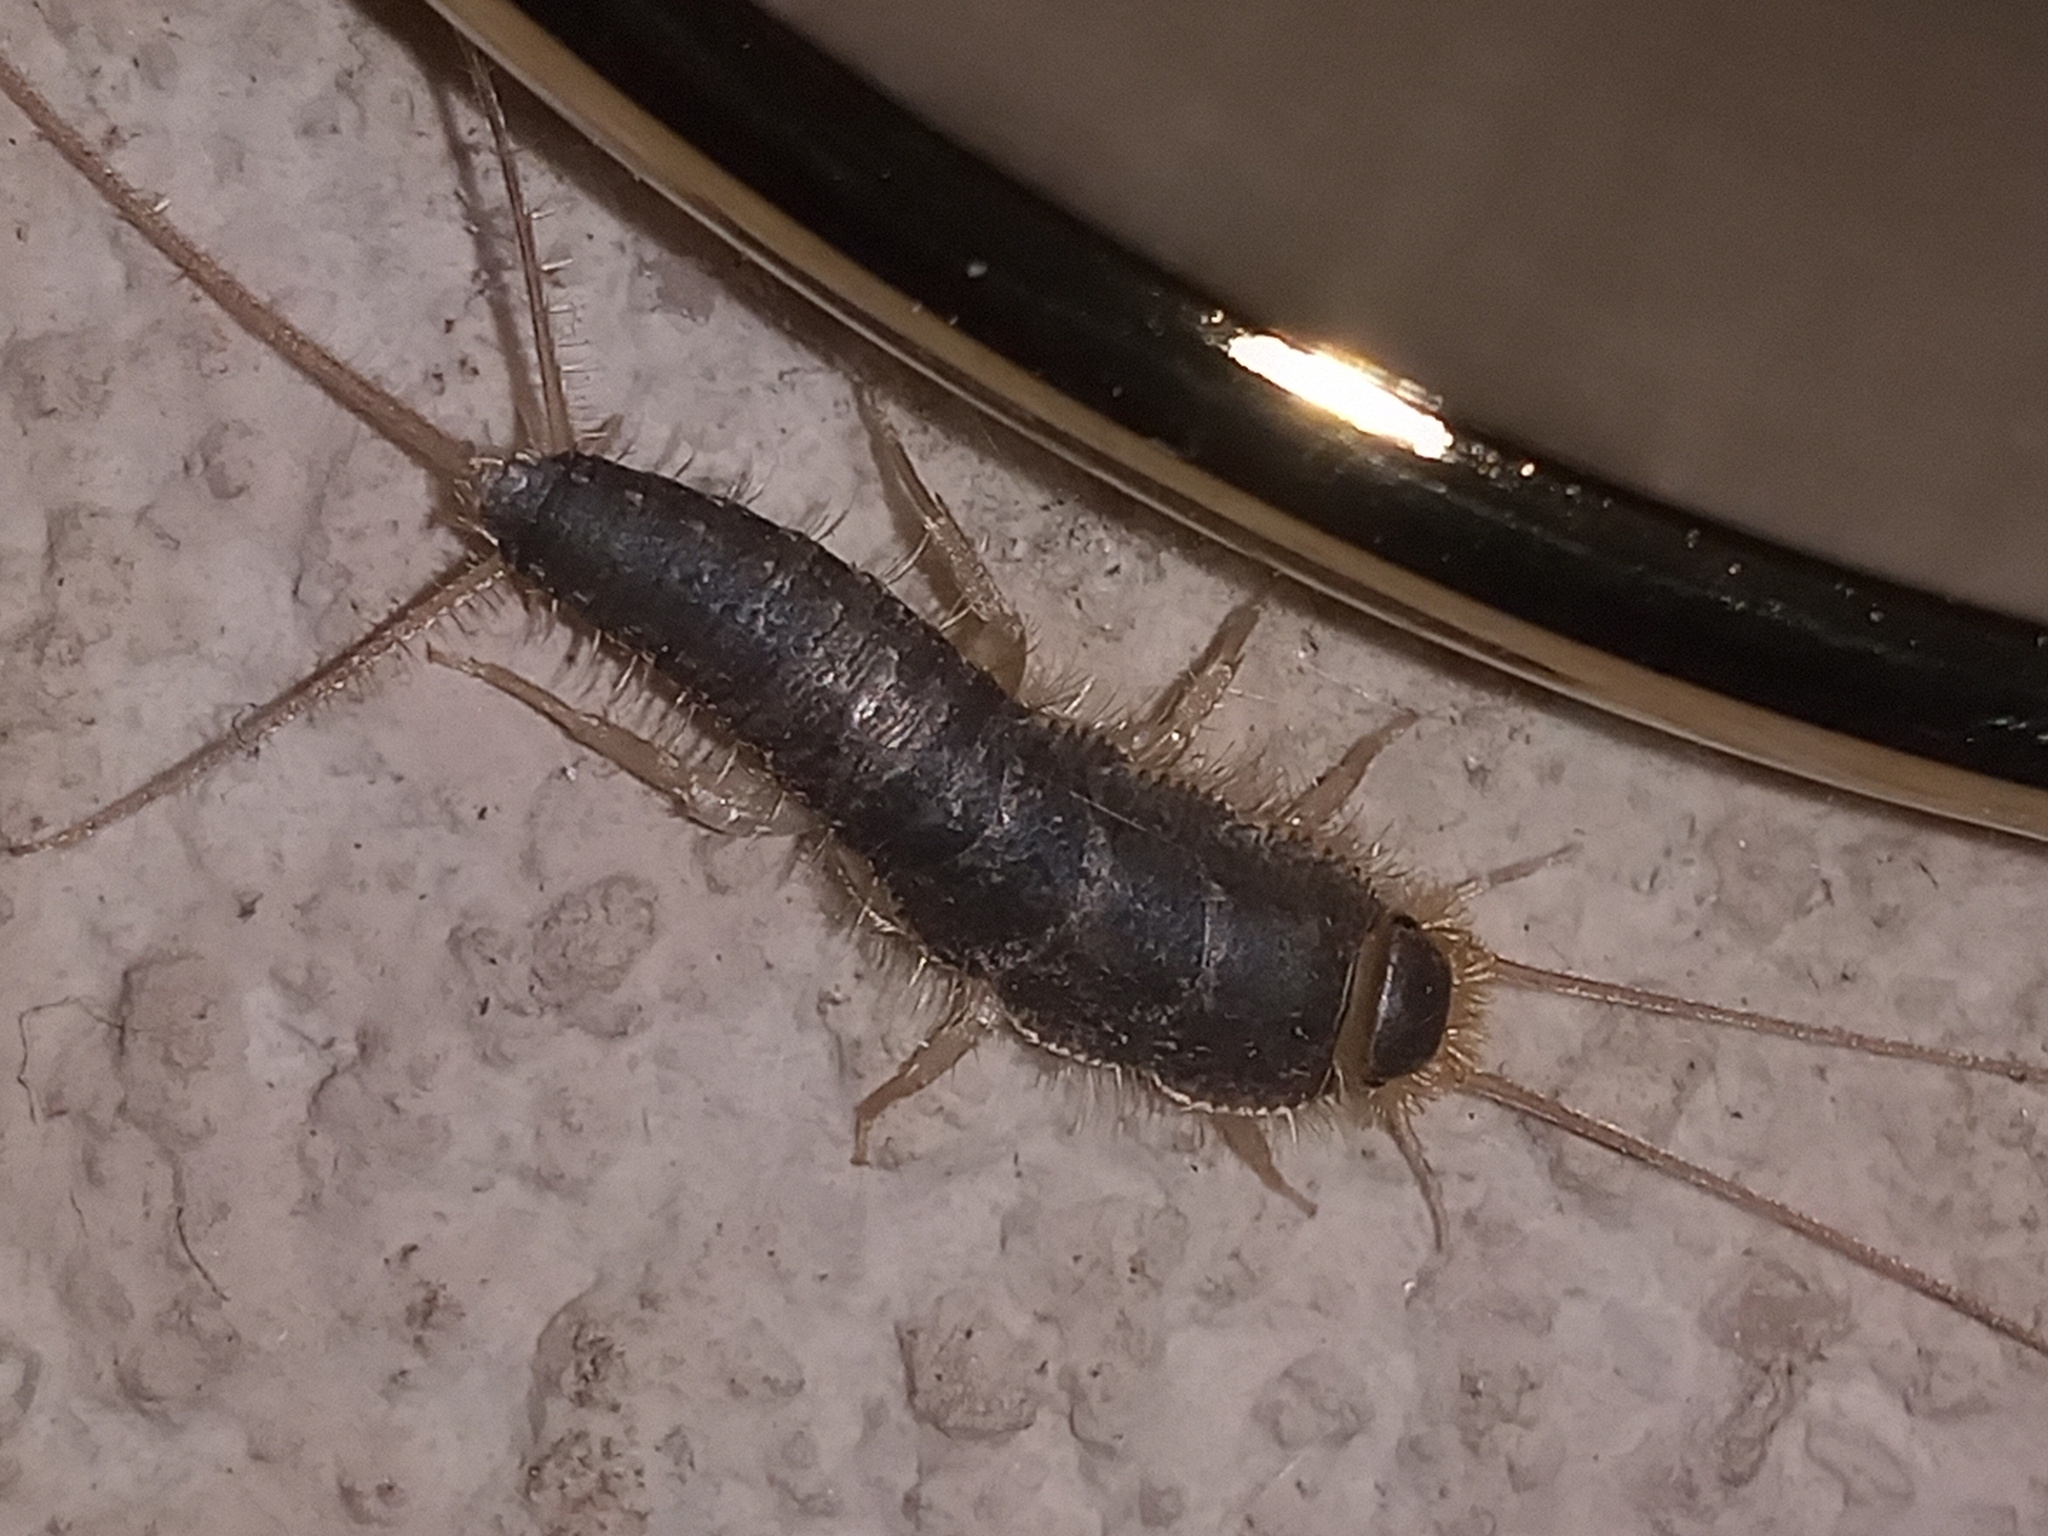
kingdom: Animalia
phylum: Arthropoda
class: Insecta
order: Zygentoma
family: Lepismatidae
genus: Ctenolepisma
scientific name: Ctenolepisma longicaudatum
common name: Silverfish
